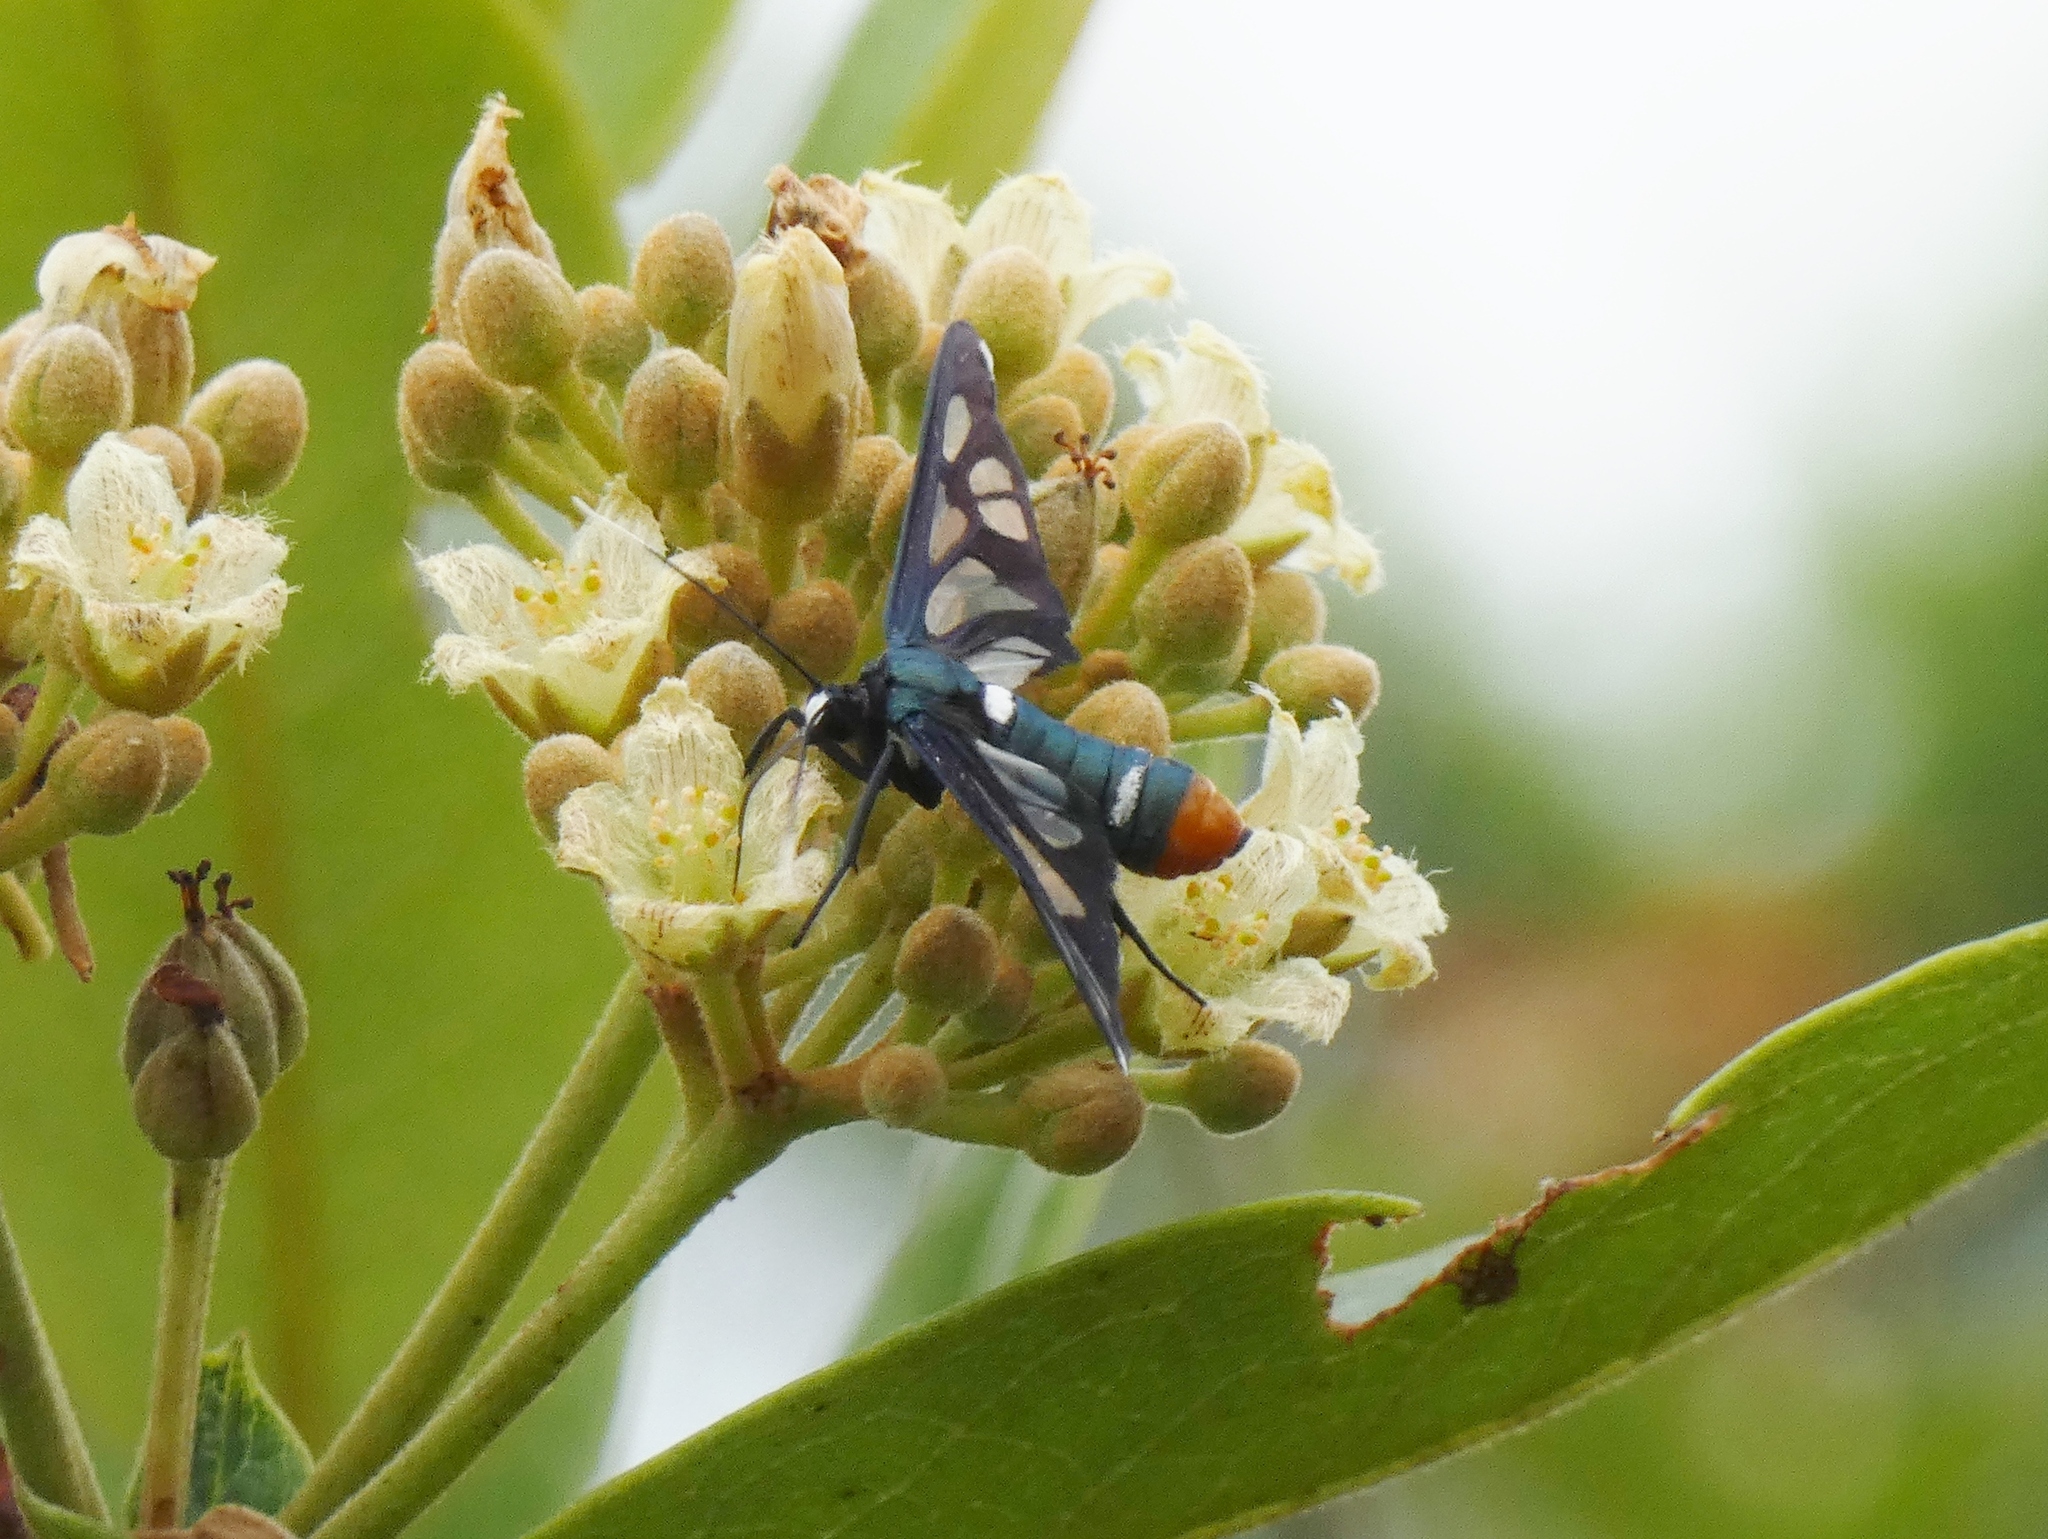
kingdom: Animalia
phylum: Arthropoda
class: Insecta
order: Lepidoptera
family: Erebidae
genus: Ceryx
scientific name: Ceryx semihyalina
